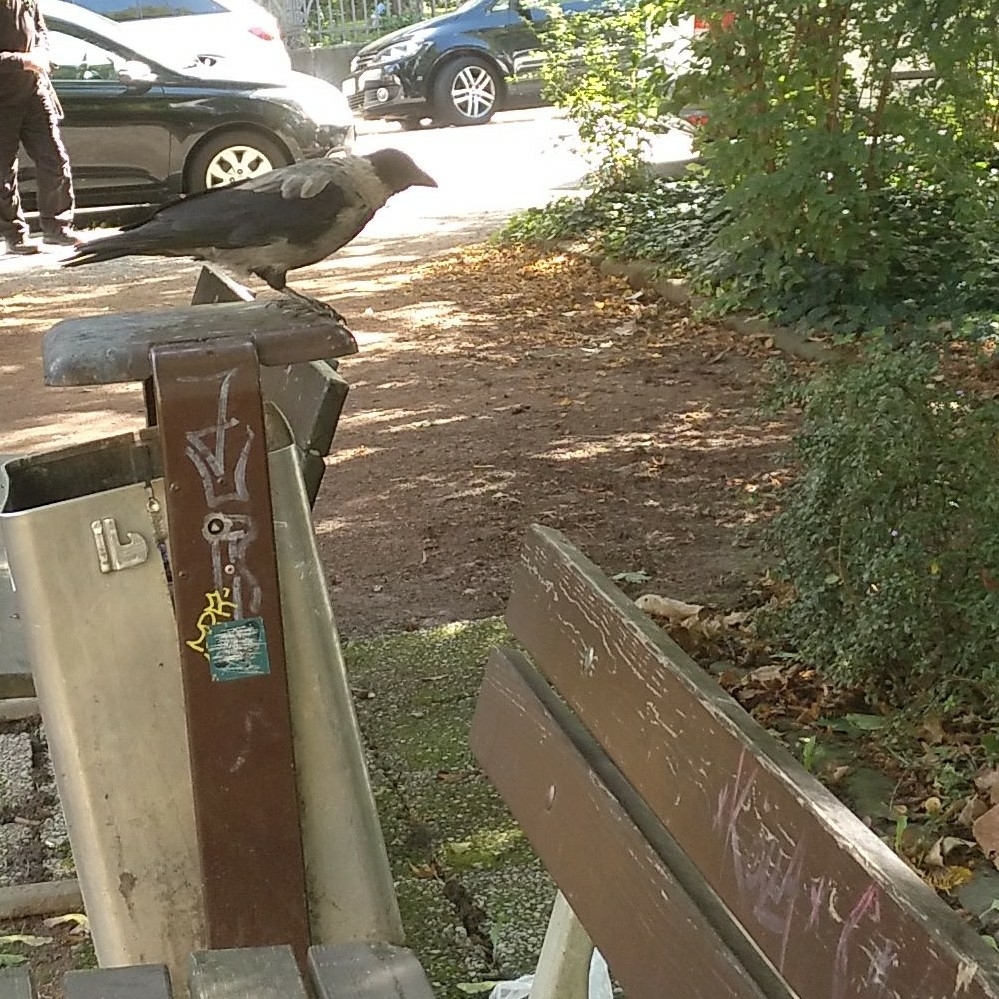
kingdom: Animalia
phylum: Chordata
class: Aves
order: Passeriformes
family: Corvidae
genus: Corvus
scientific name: Corvus
